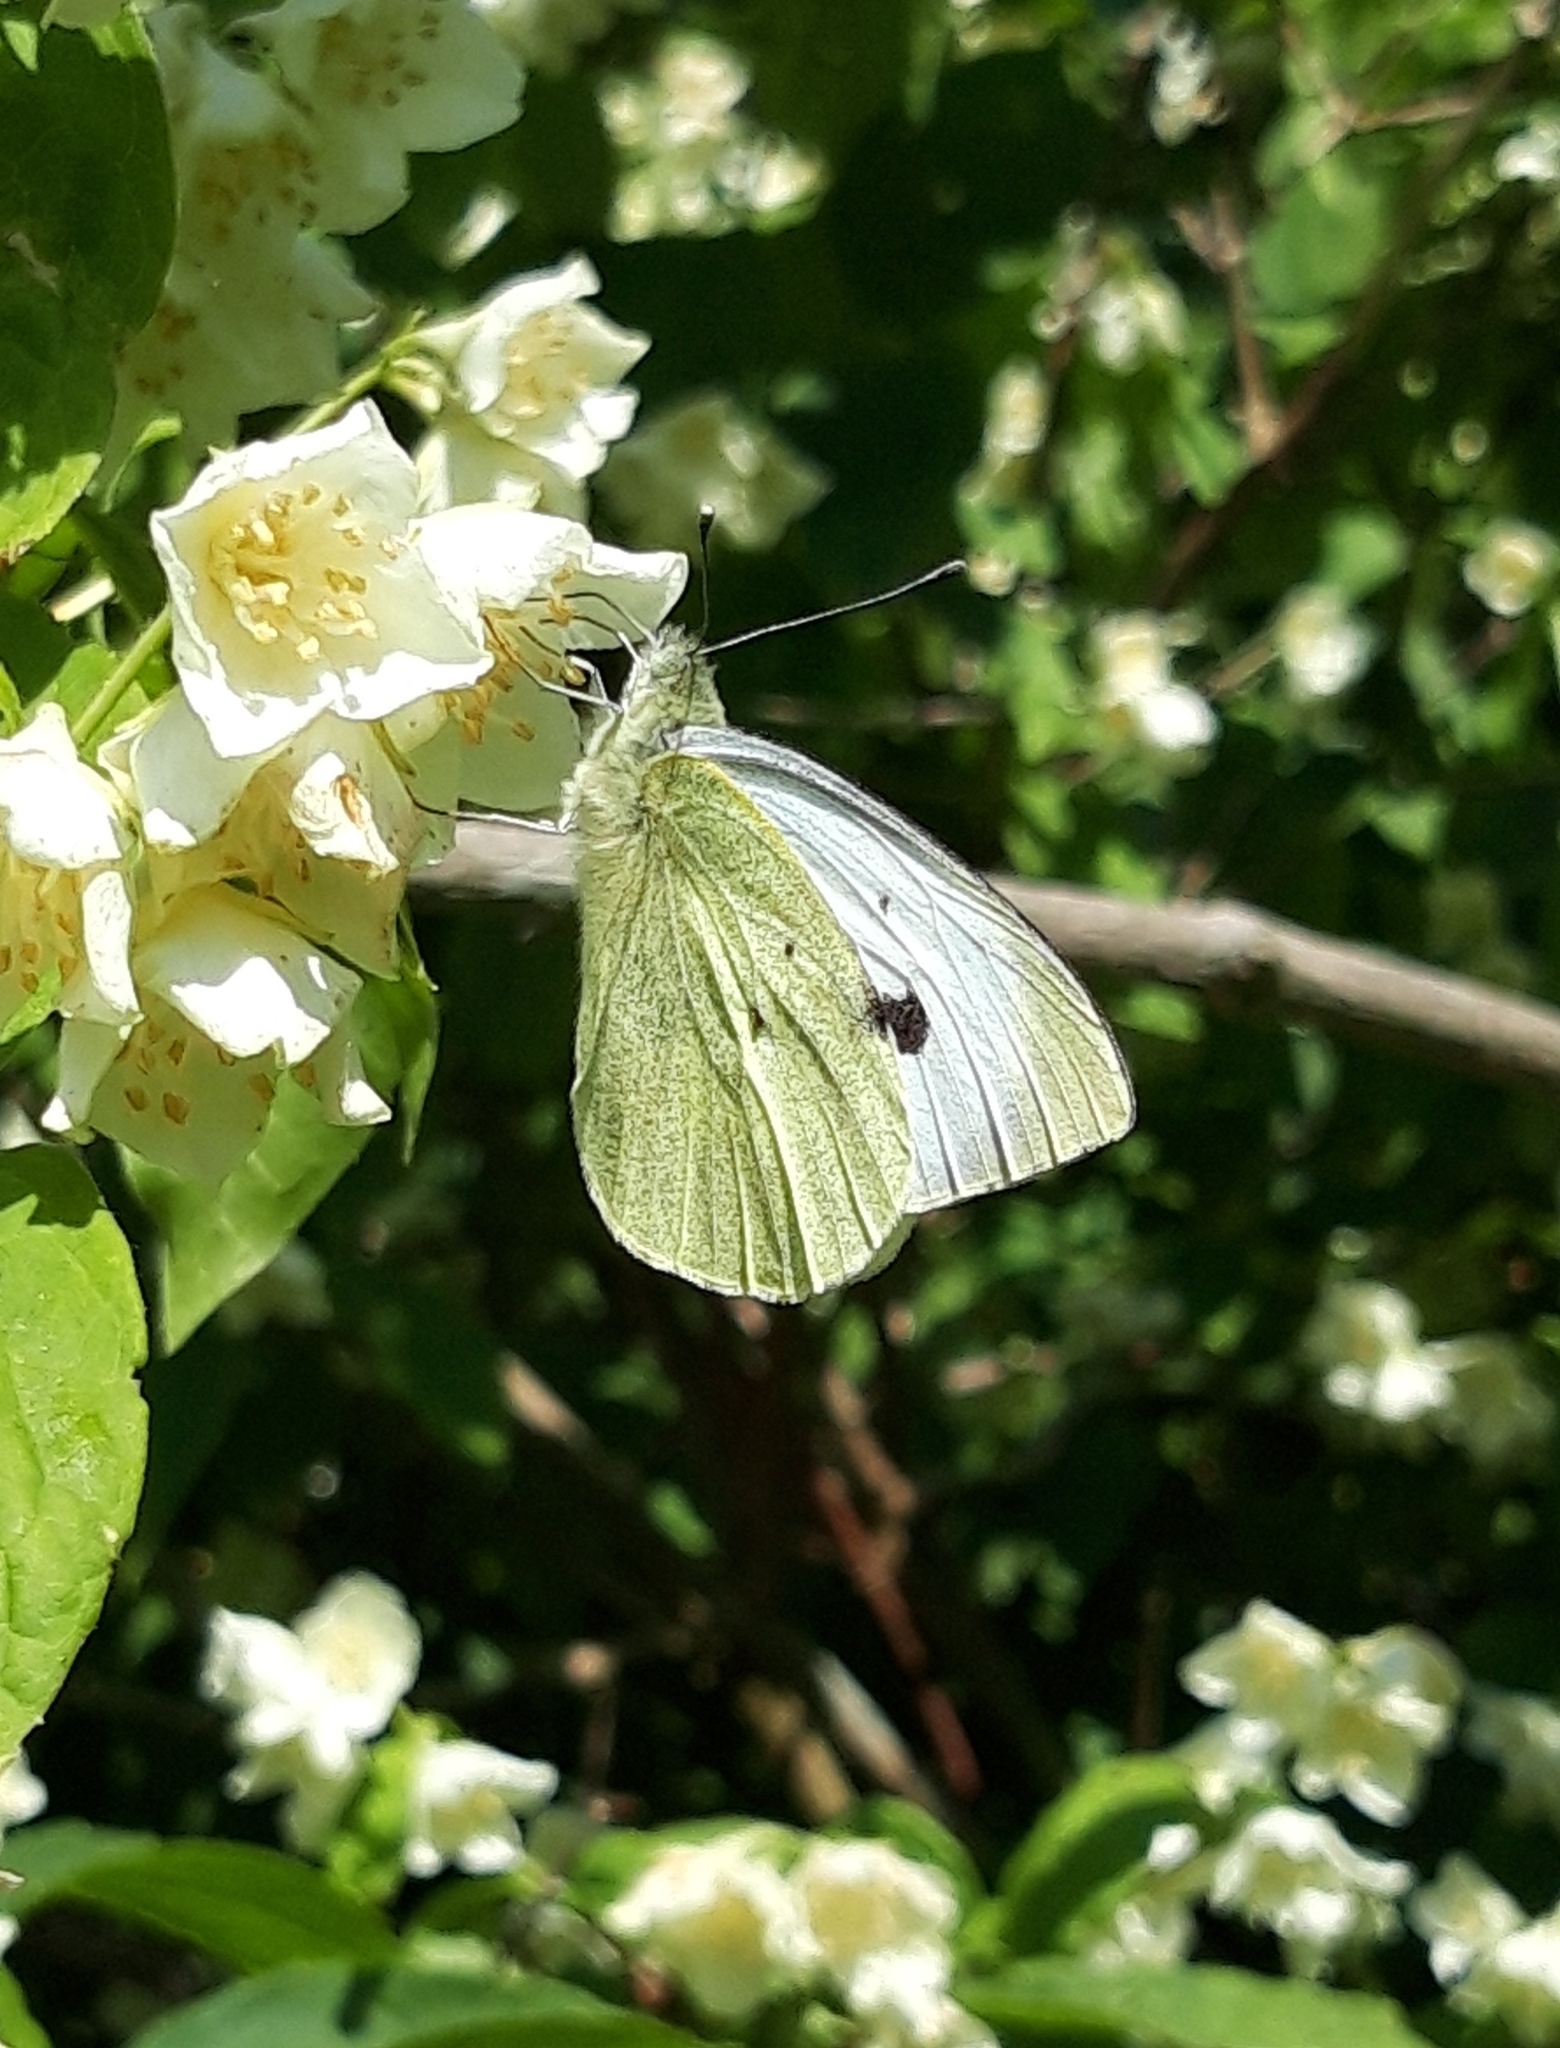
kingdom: Animalia
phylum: Arthropoda
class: Insecta
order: Lepidoptera
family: Pieridae
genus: Pieris
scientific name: Pieris brassicae
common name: Large white
